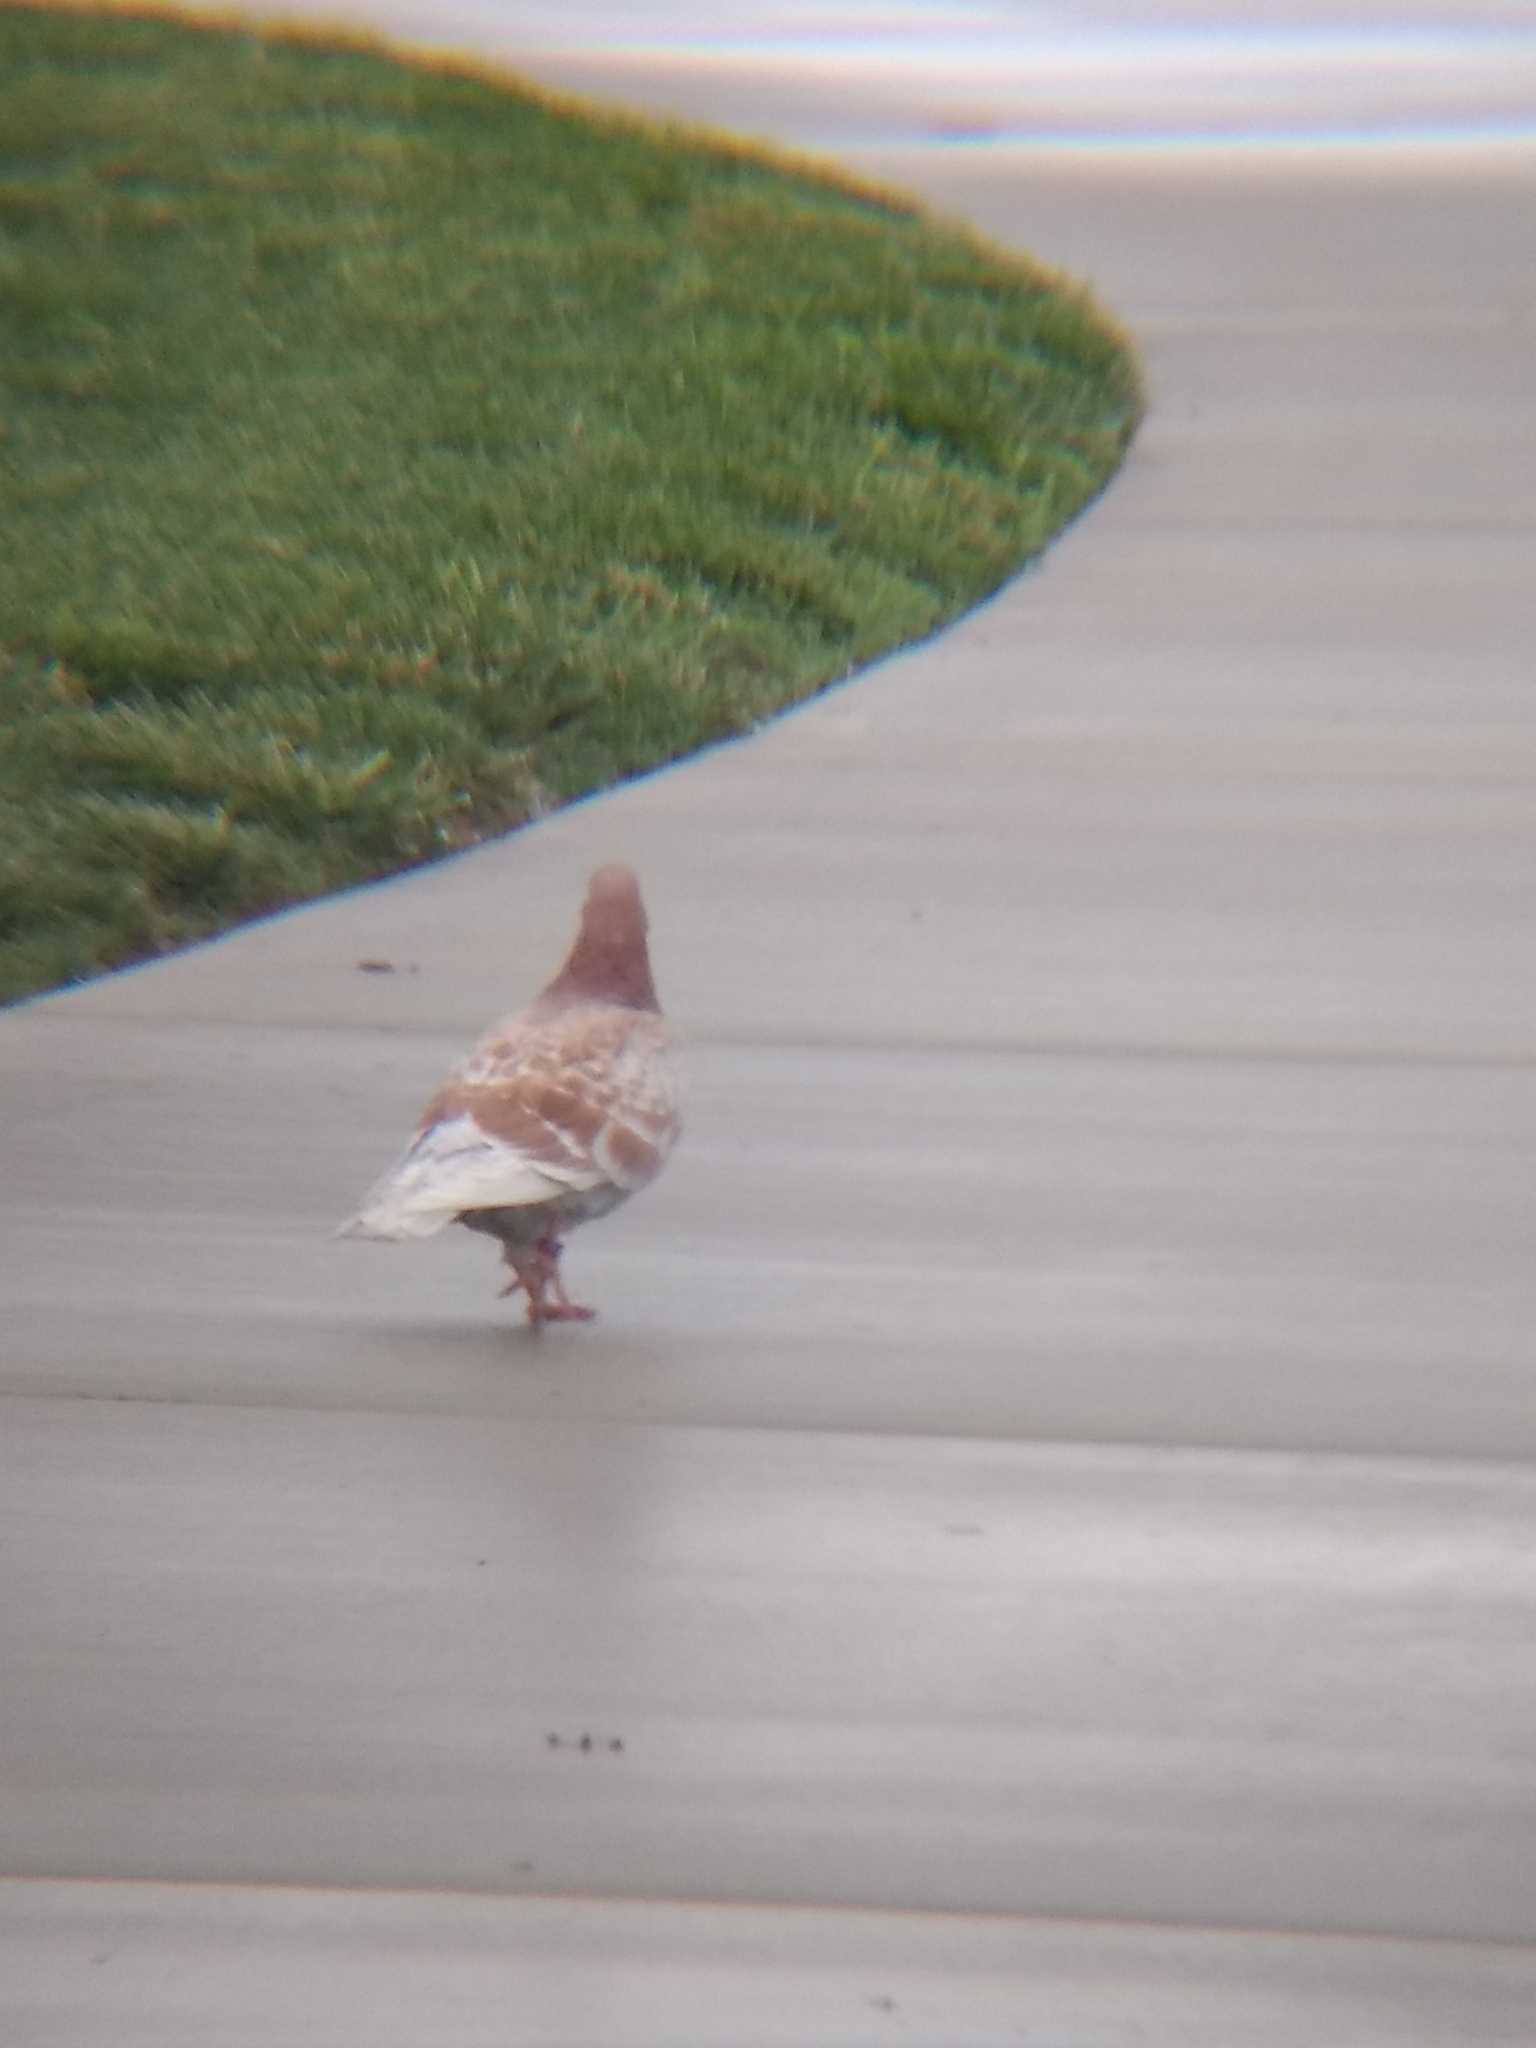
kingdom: Animalia
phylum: Chordata
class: Aves
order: Columbiformes
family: Columbidae
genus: Columba
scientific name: Columba livia
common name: Rock pigeon
